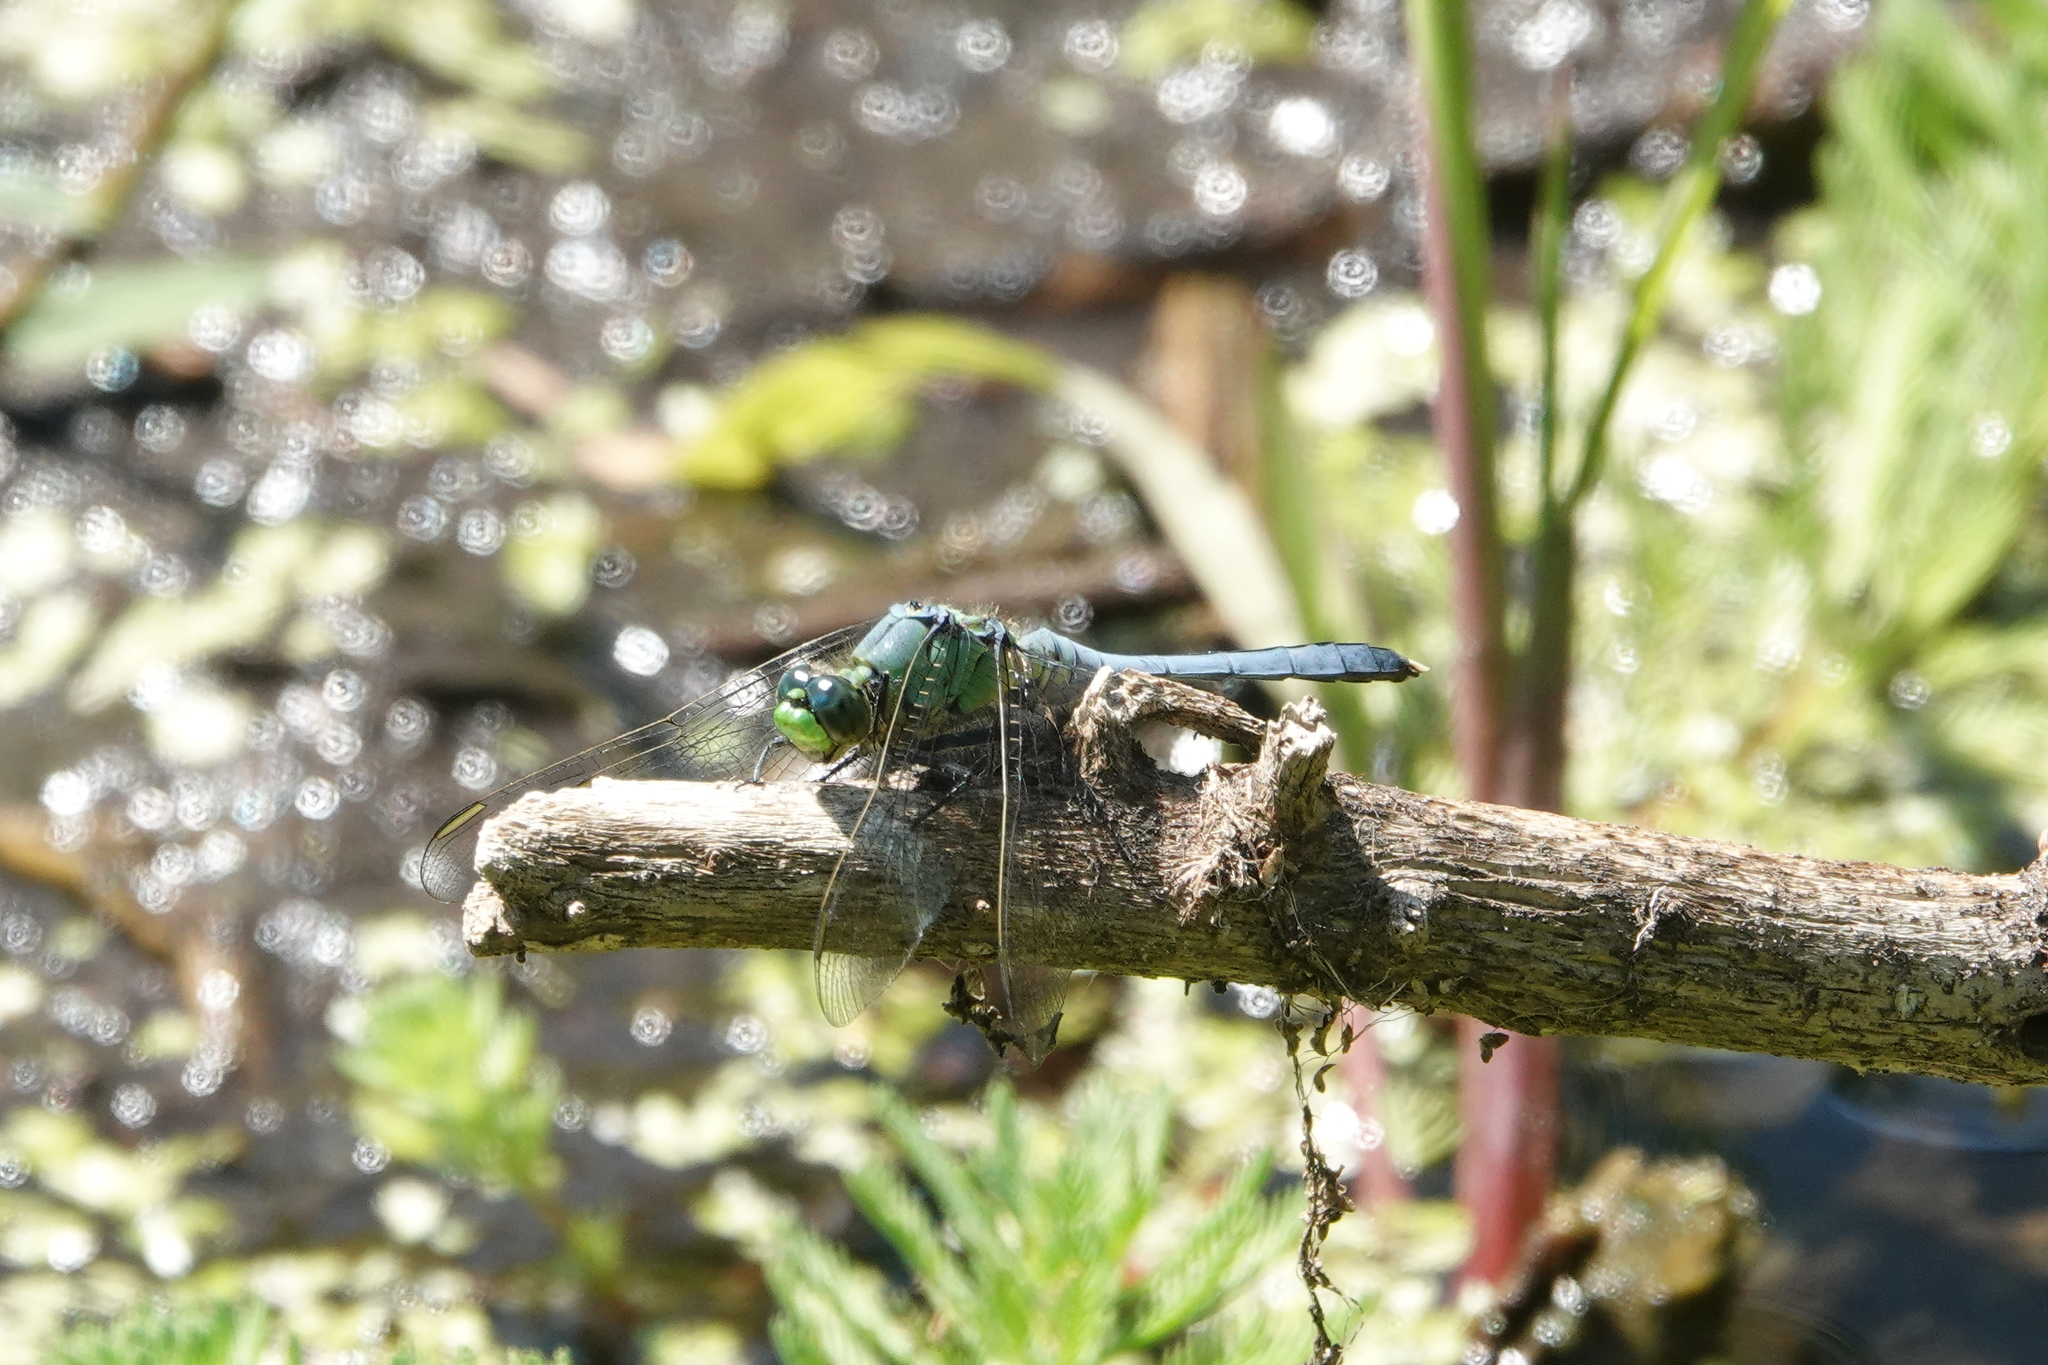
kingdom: Animalia
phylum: Arthropoda
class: Insecta
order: Odonata
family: Libellulidae
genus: Erythemis
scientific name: Erythemis simplicicollis
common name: Eastern pondhawk
